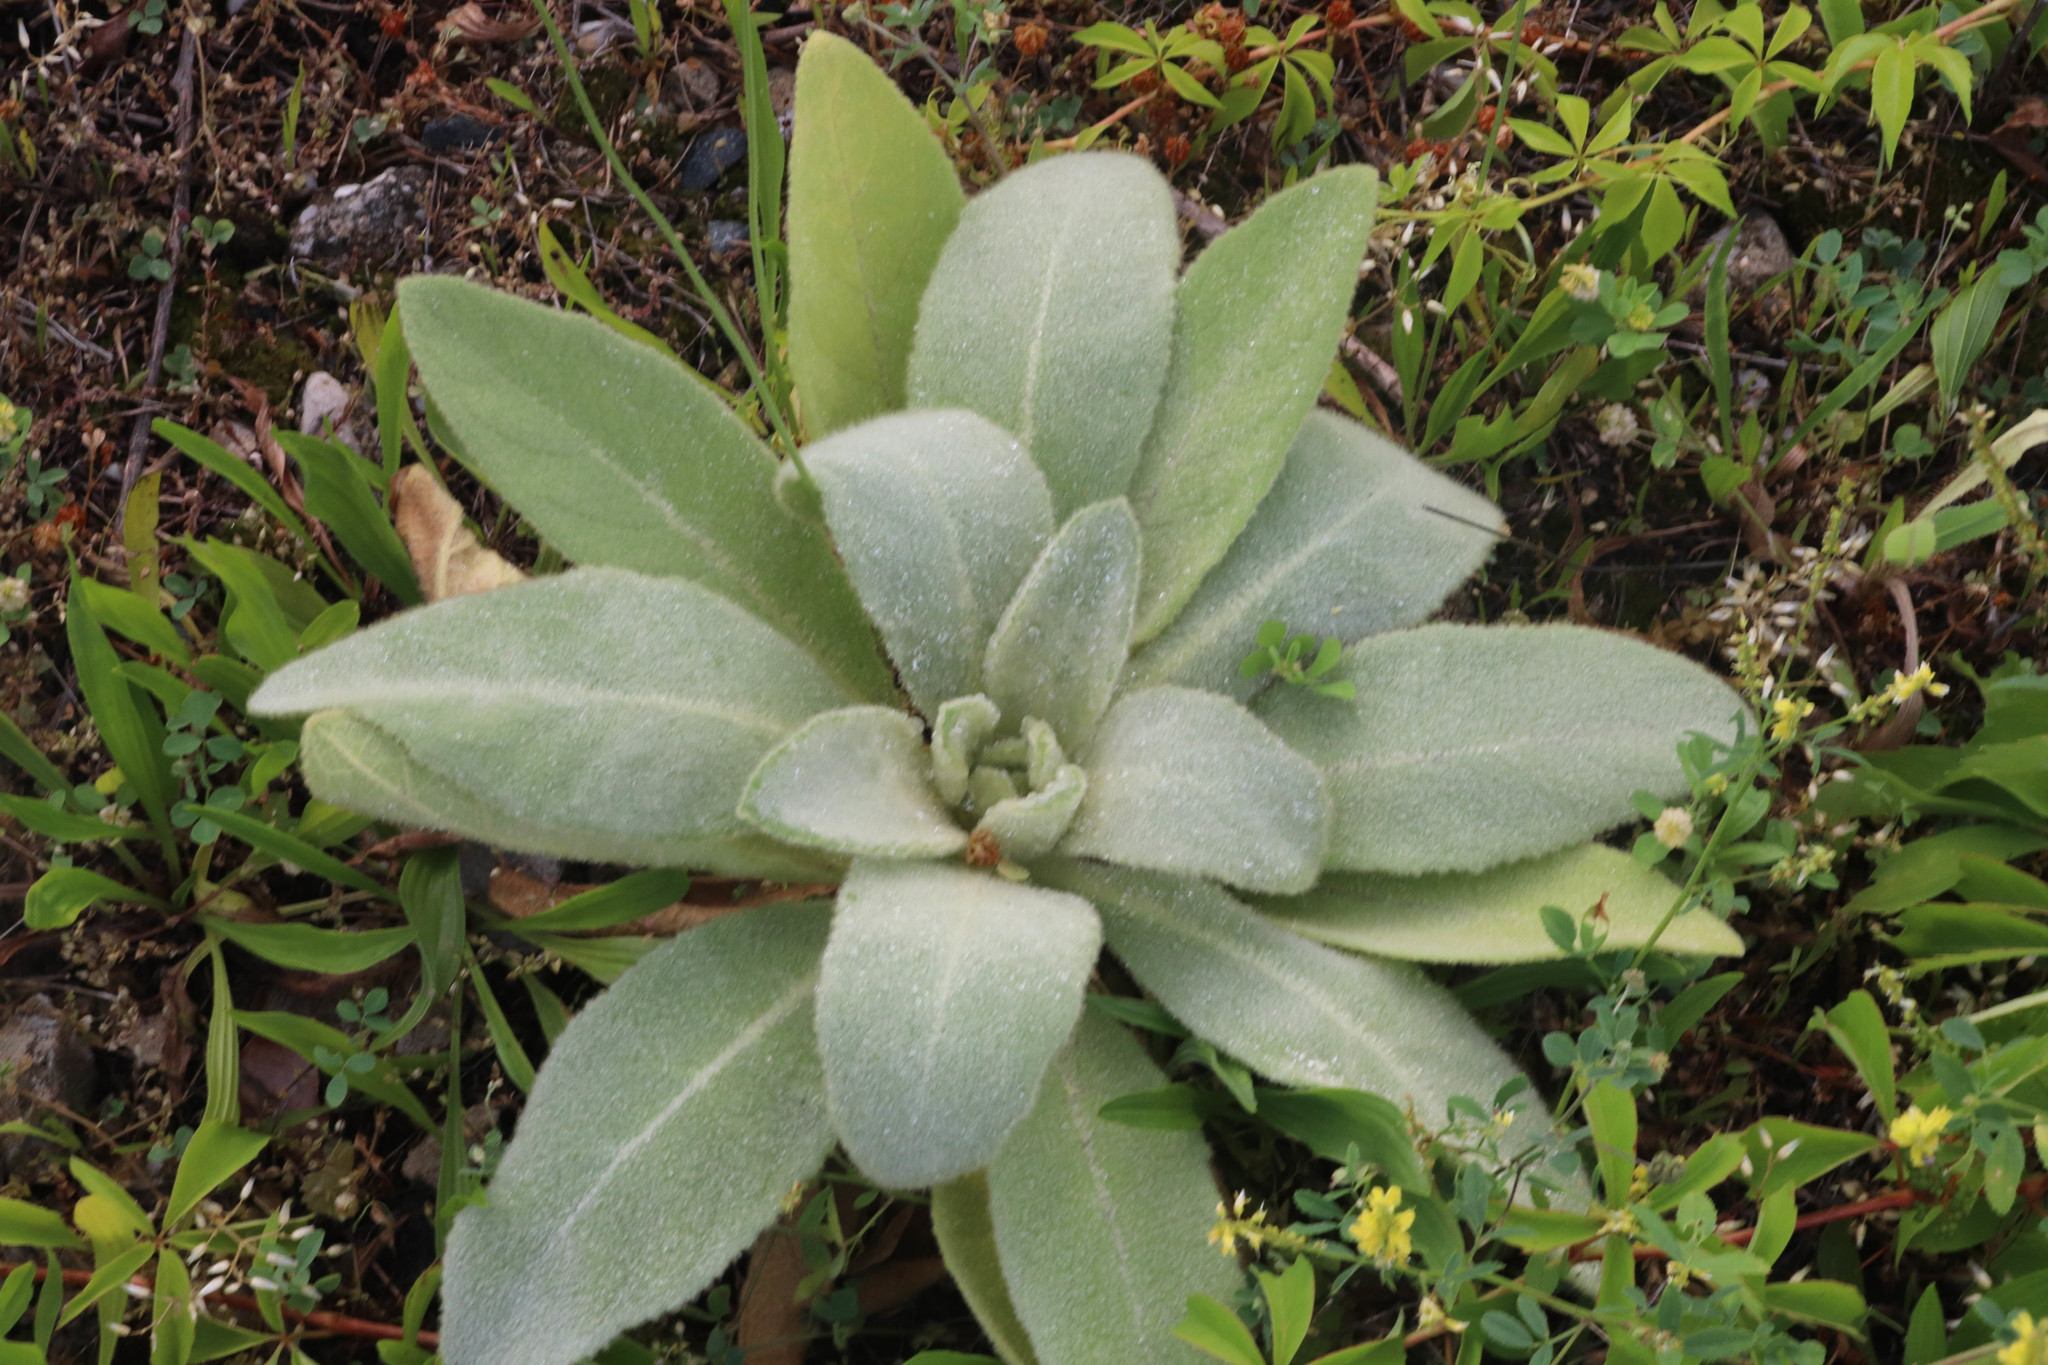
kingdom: Plantae
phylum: Tracheophyta
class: Magnoliopsida
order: Lamiales
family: Scrophulariaceae
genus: Verbascum
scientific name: Verbascum thapsus
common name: Common mullein
